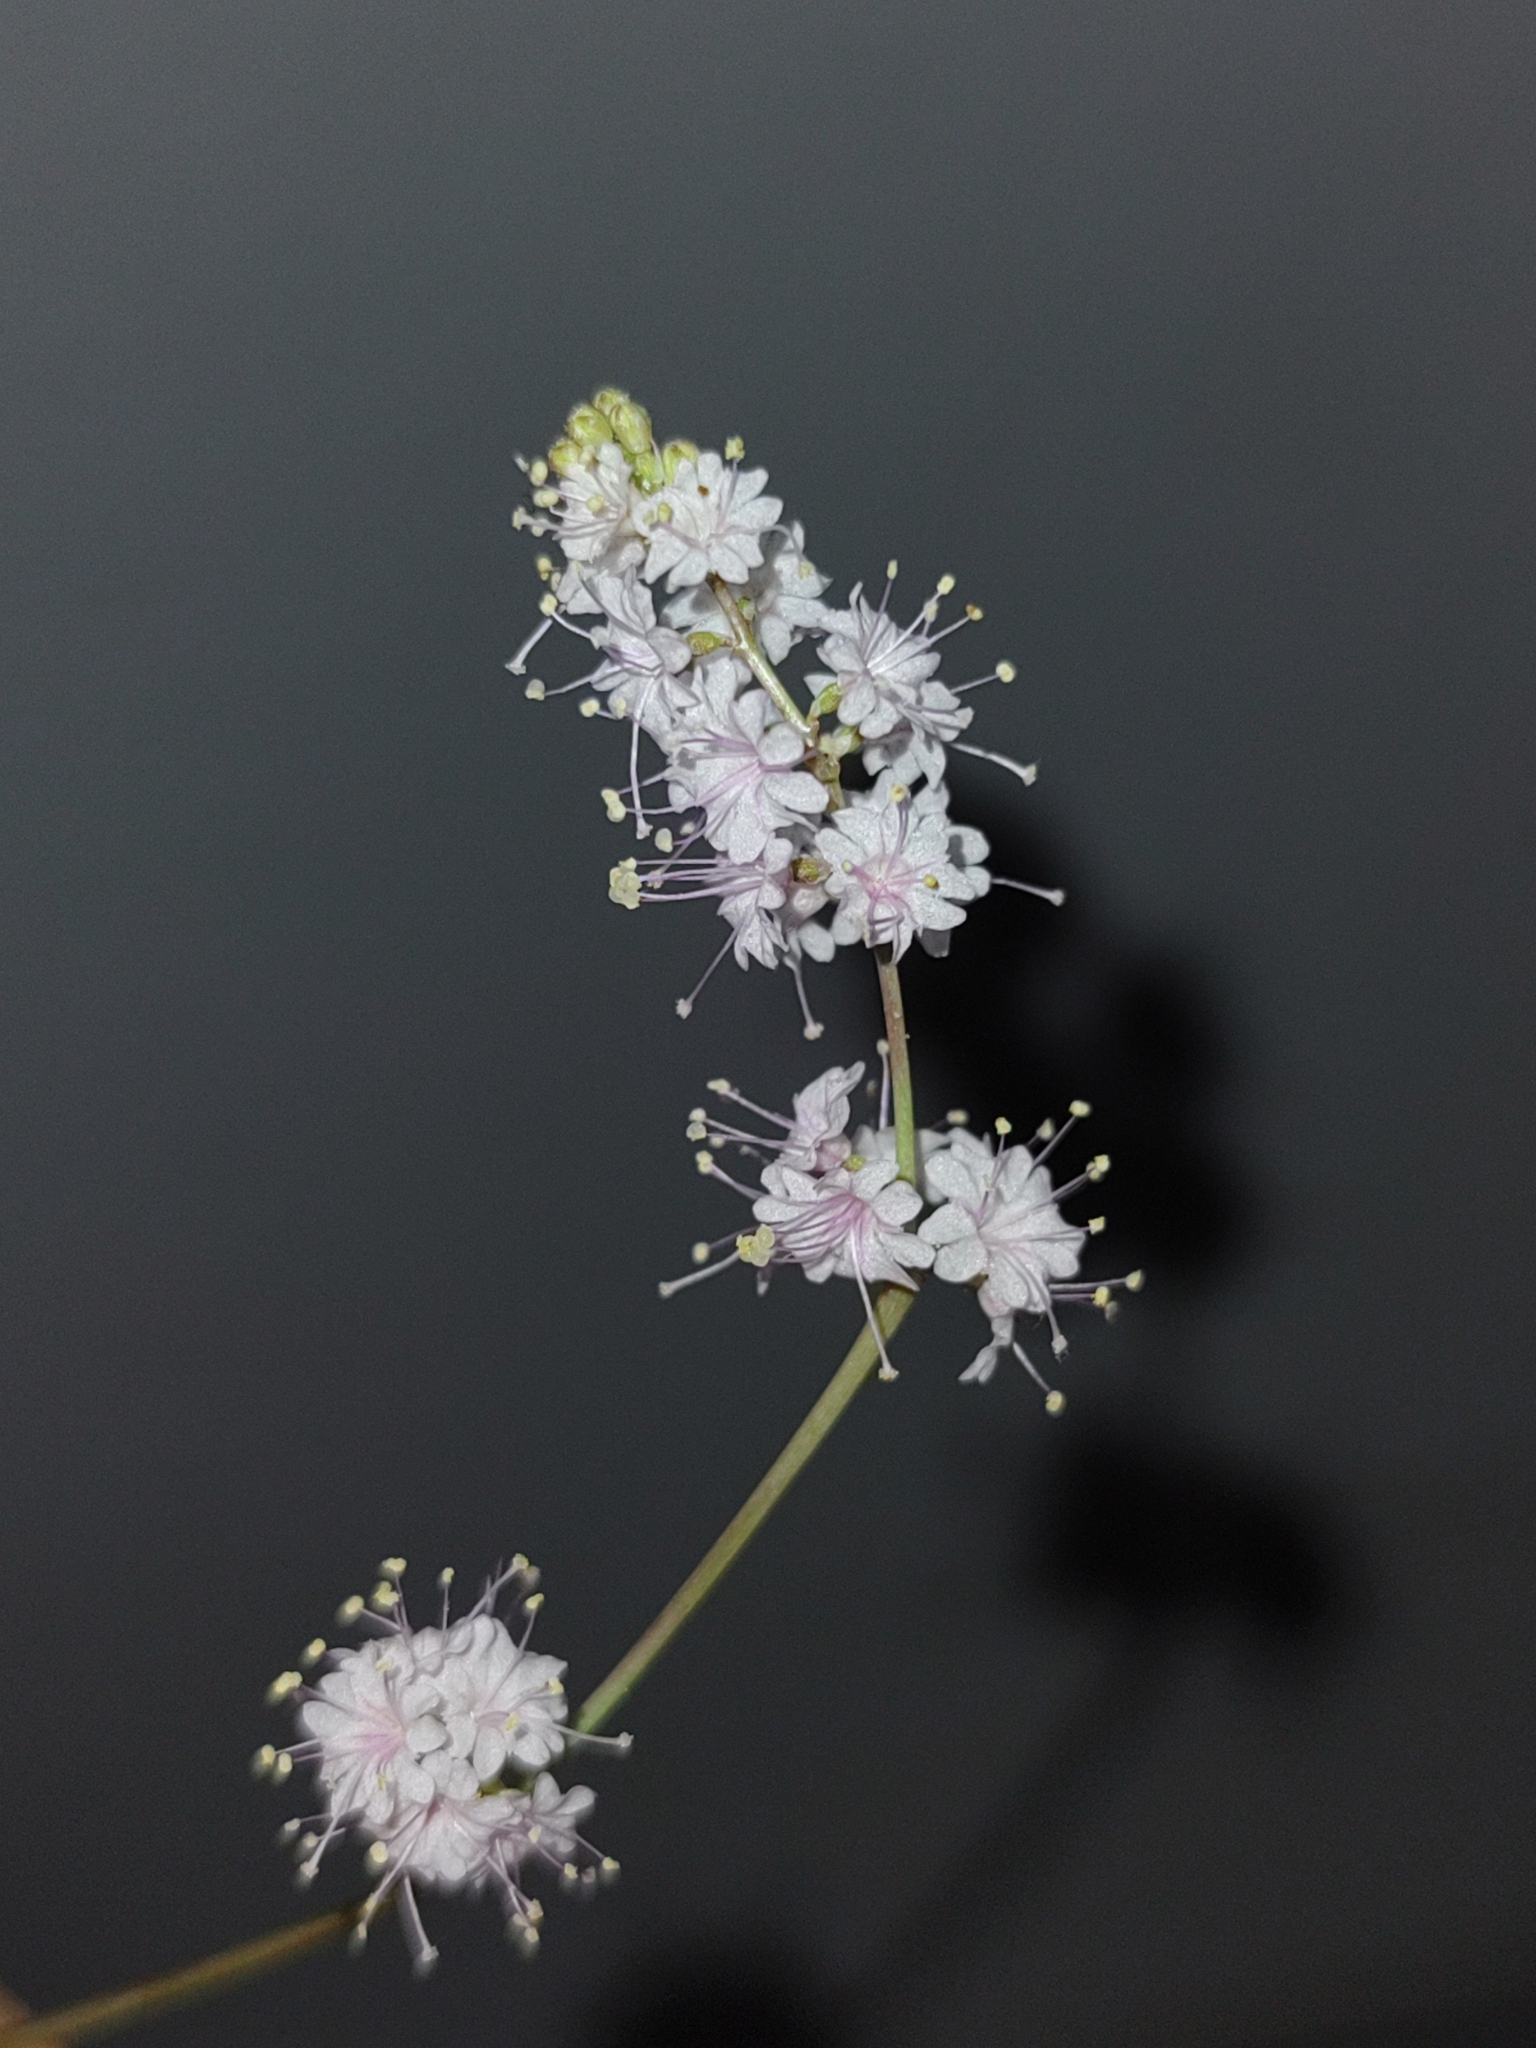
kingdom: Plantae
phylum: Tracheophyta
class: Magnoliopsida
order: Caryophyllales
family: Nyctaginaceae
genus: Boerhavia
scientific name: Boerhavia xantii
